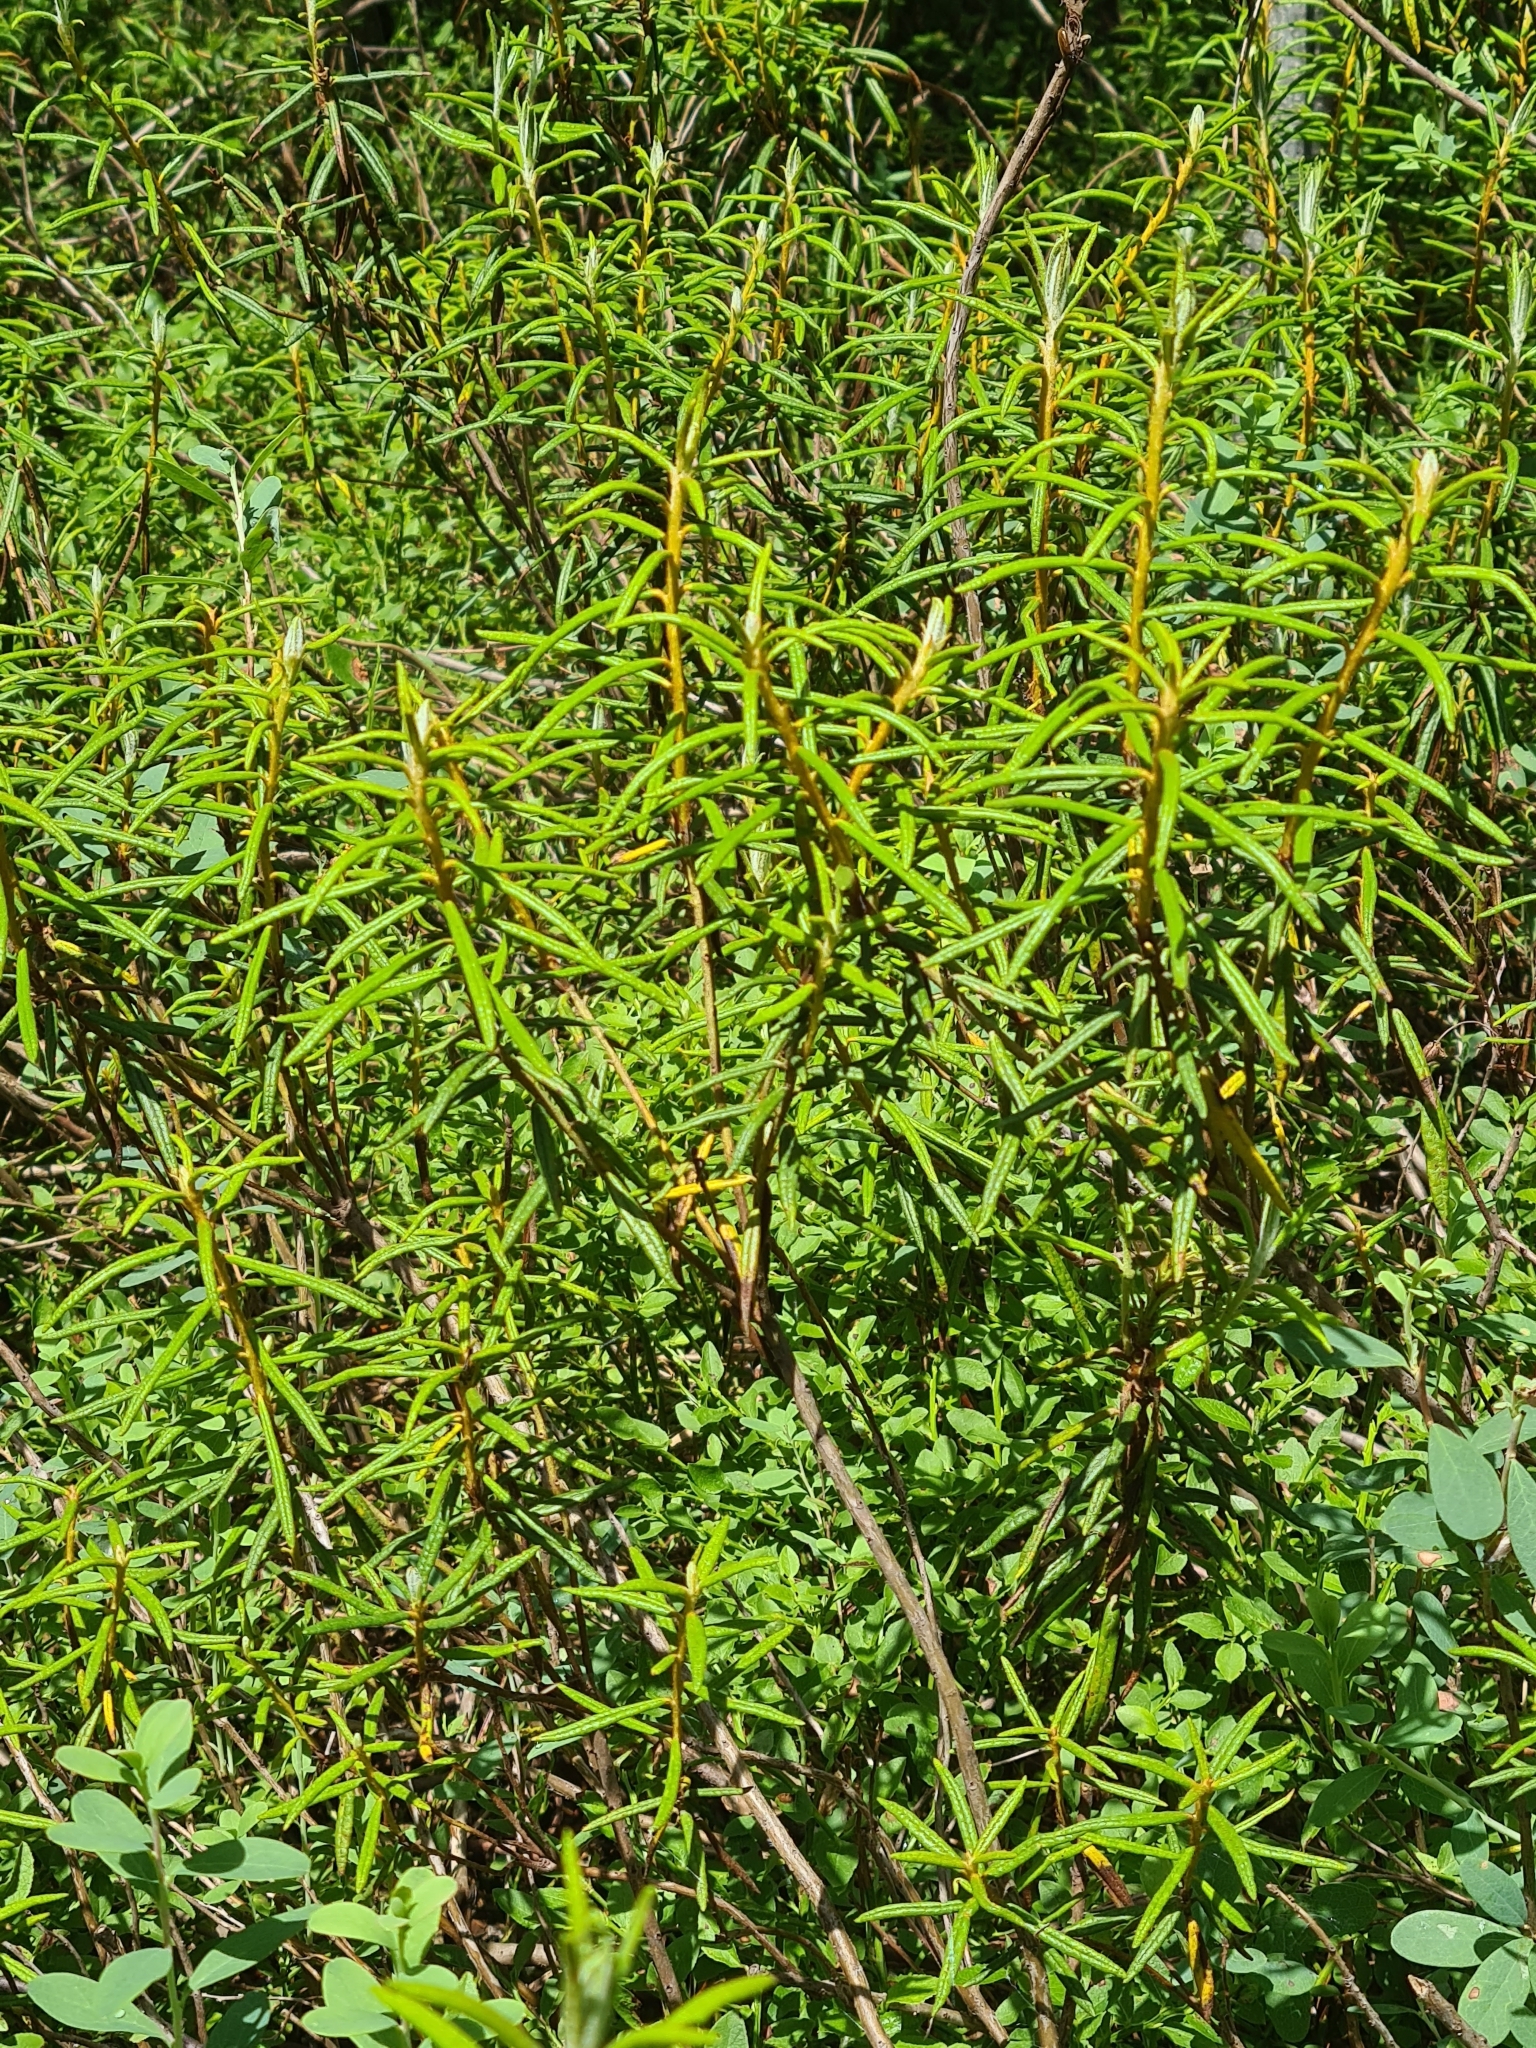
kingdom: Plantae
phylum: Tracheophyta
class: Magnoliopsida
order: Ericales
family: Ericaceae
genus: Rhododendron
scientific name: Rhododendron tomentosum
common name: Marsh labrador tea
